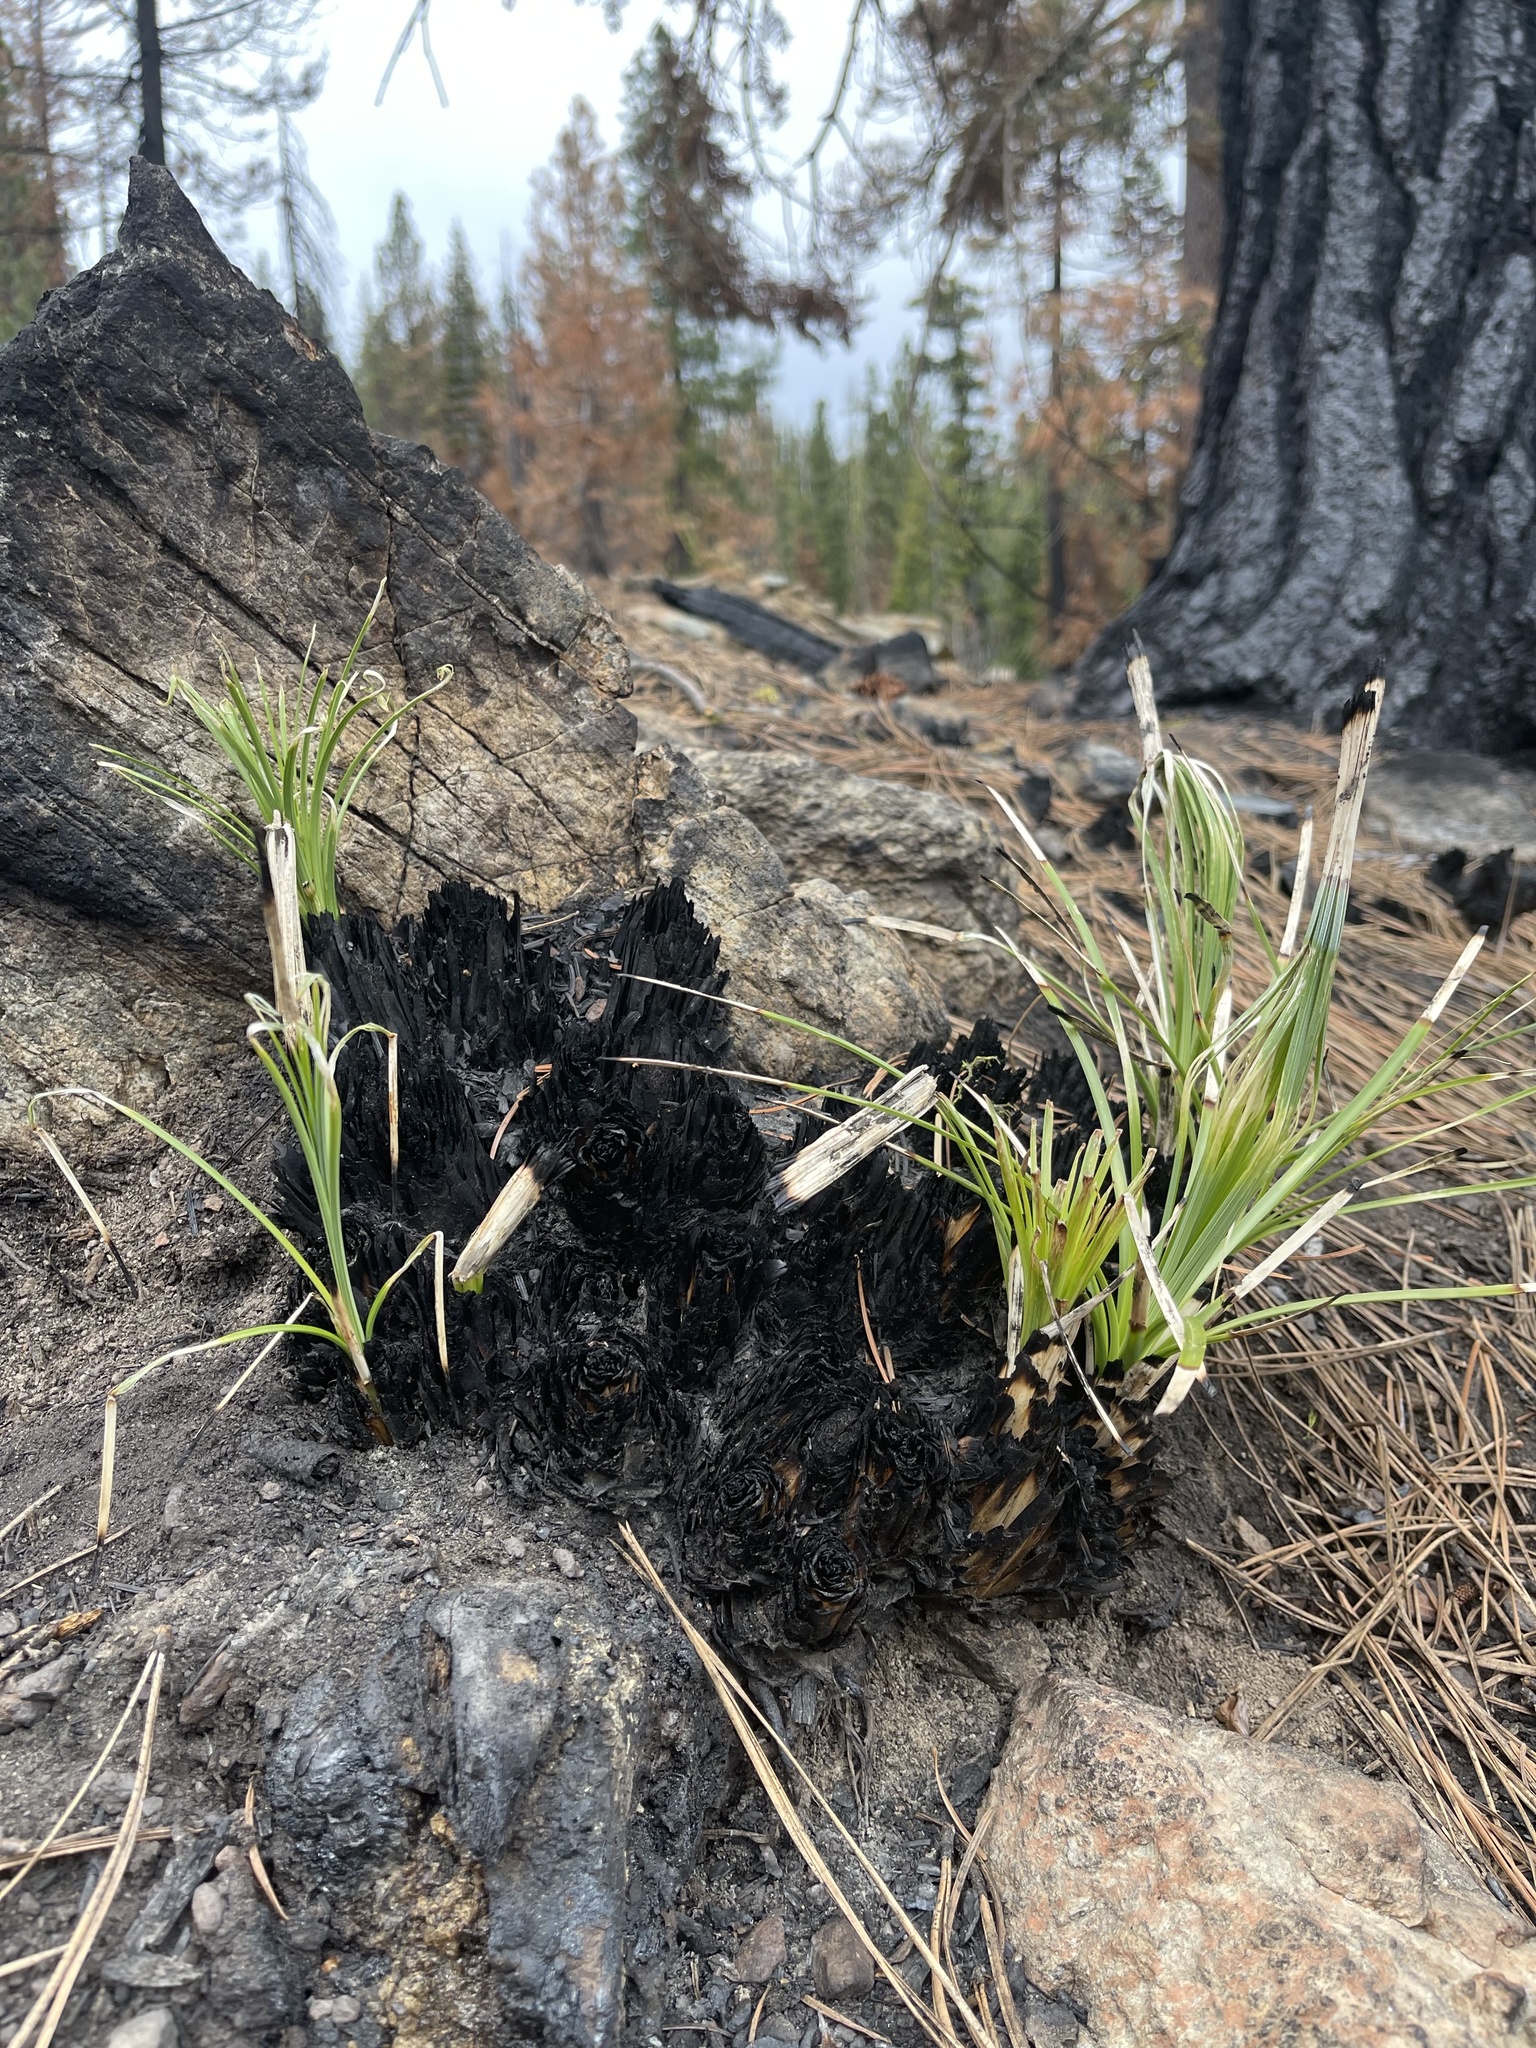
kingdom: Plantae
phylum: Tracheophyta
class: Liliopsida
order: Liliales
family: Melanthiaceae
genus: Xerophyllum
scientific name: Xerophyllum tenax
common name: Bear-grass
